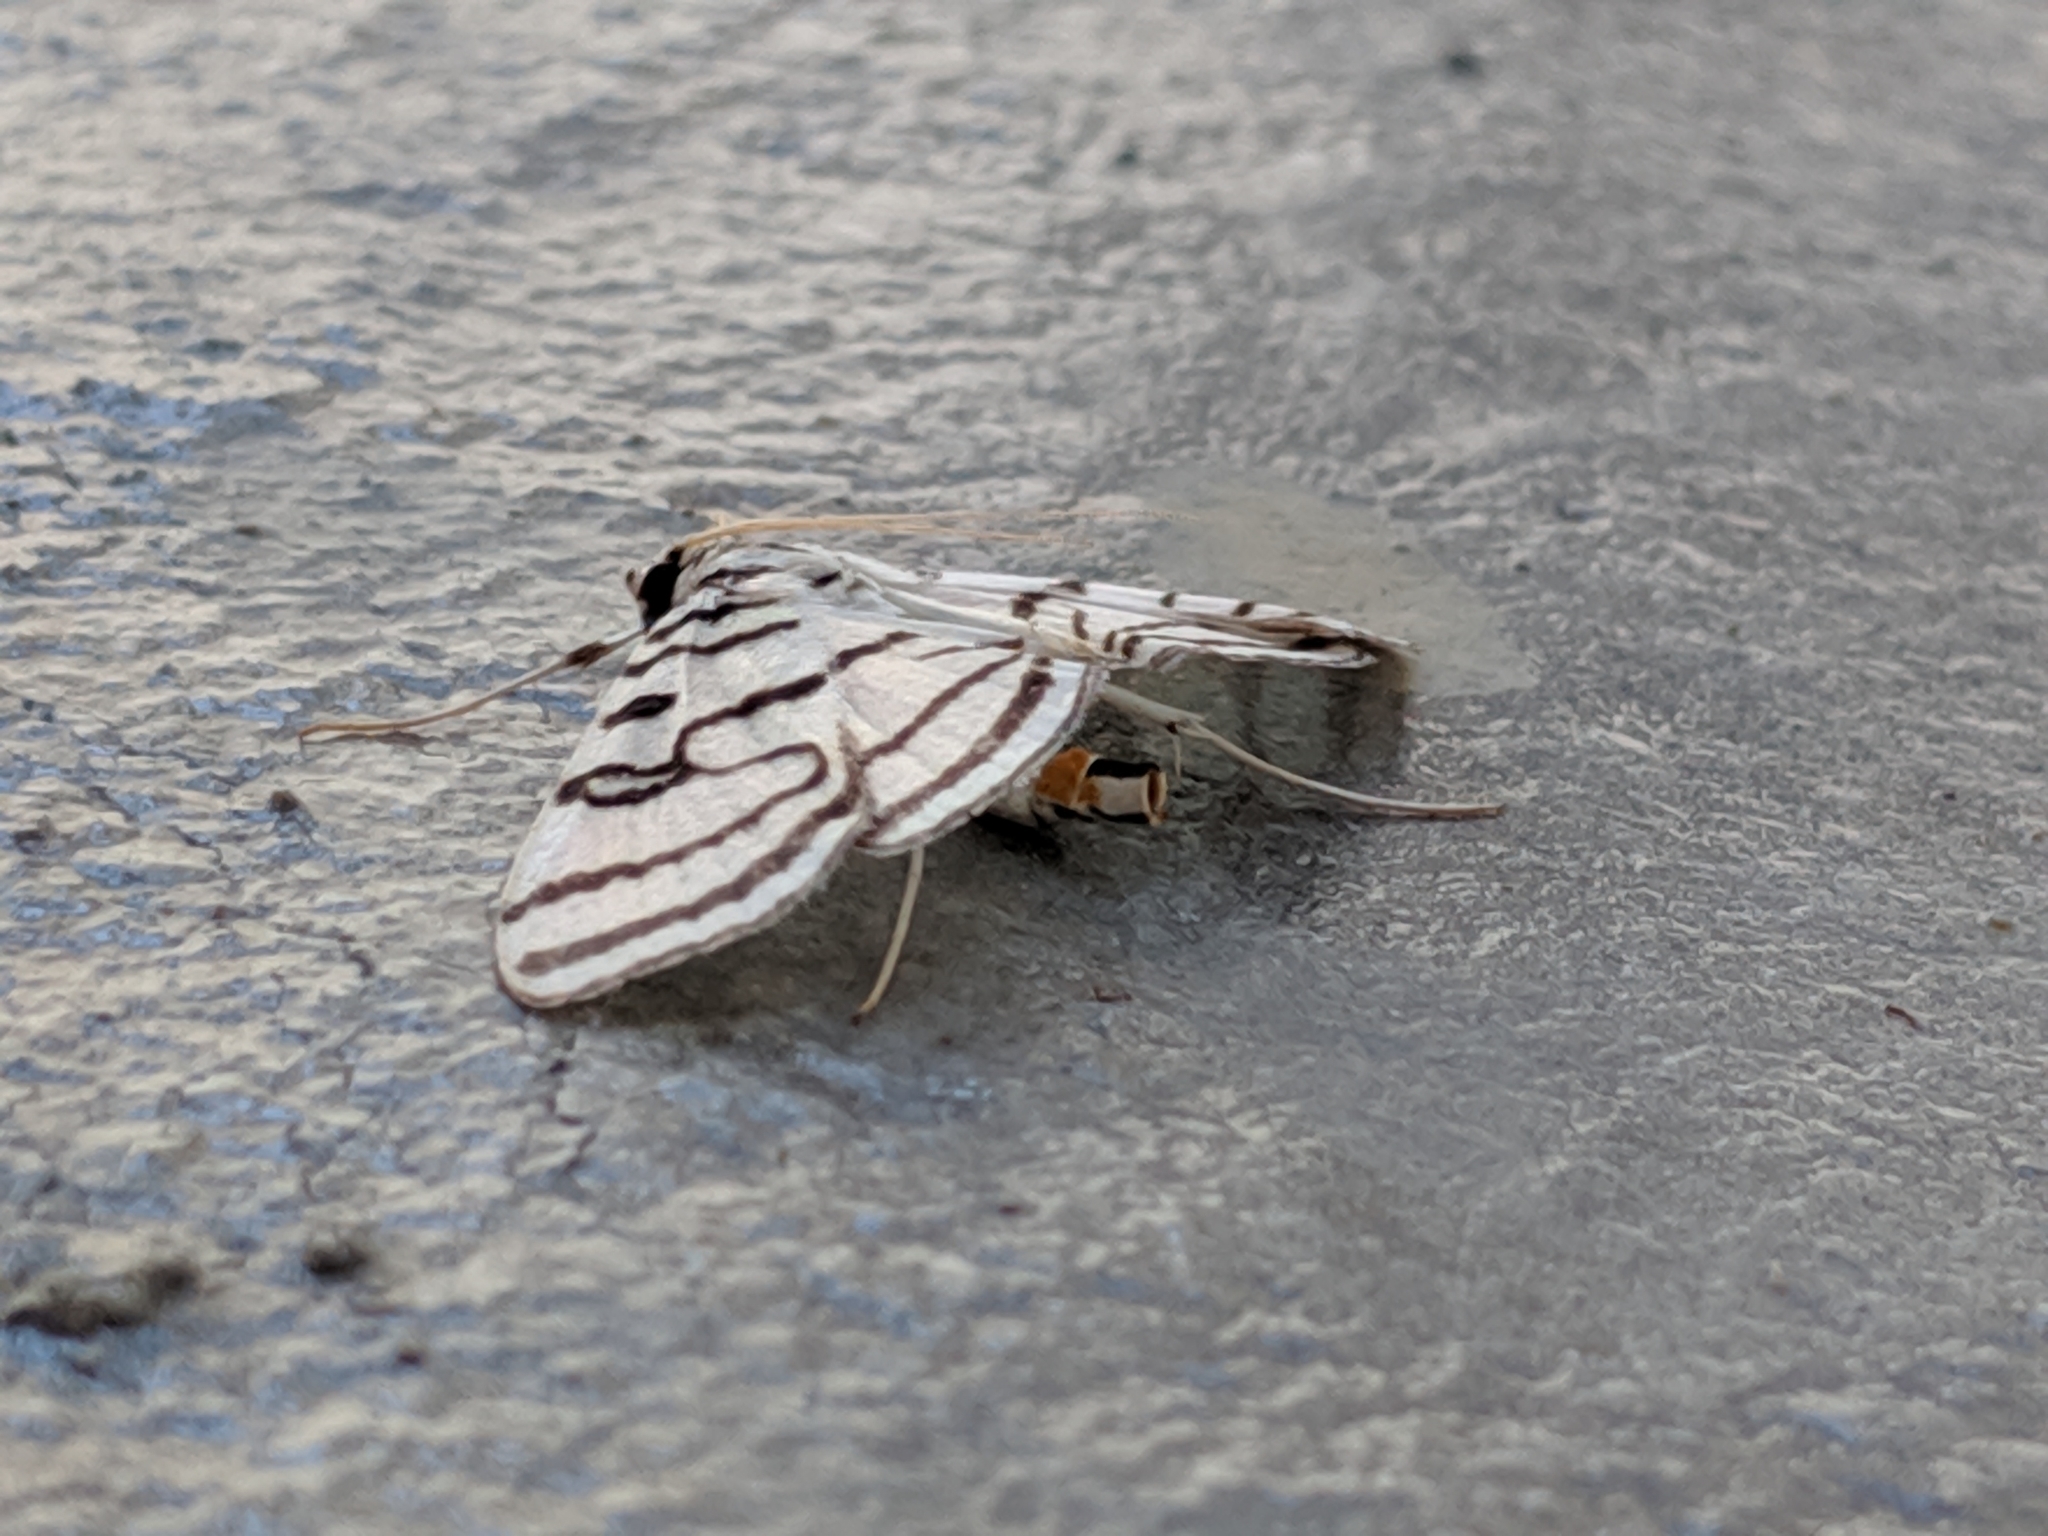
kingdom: Animalia
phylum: Arthropoda
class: Insecta
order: Lepidoptera
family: Crambidae
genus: Conchylodes
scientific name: Conchylodes ovulalis
